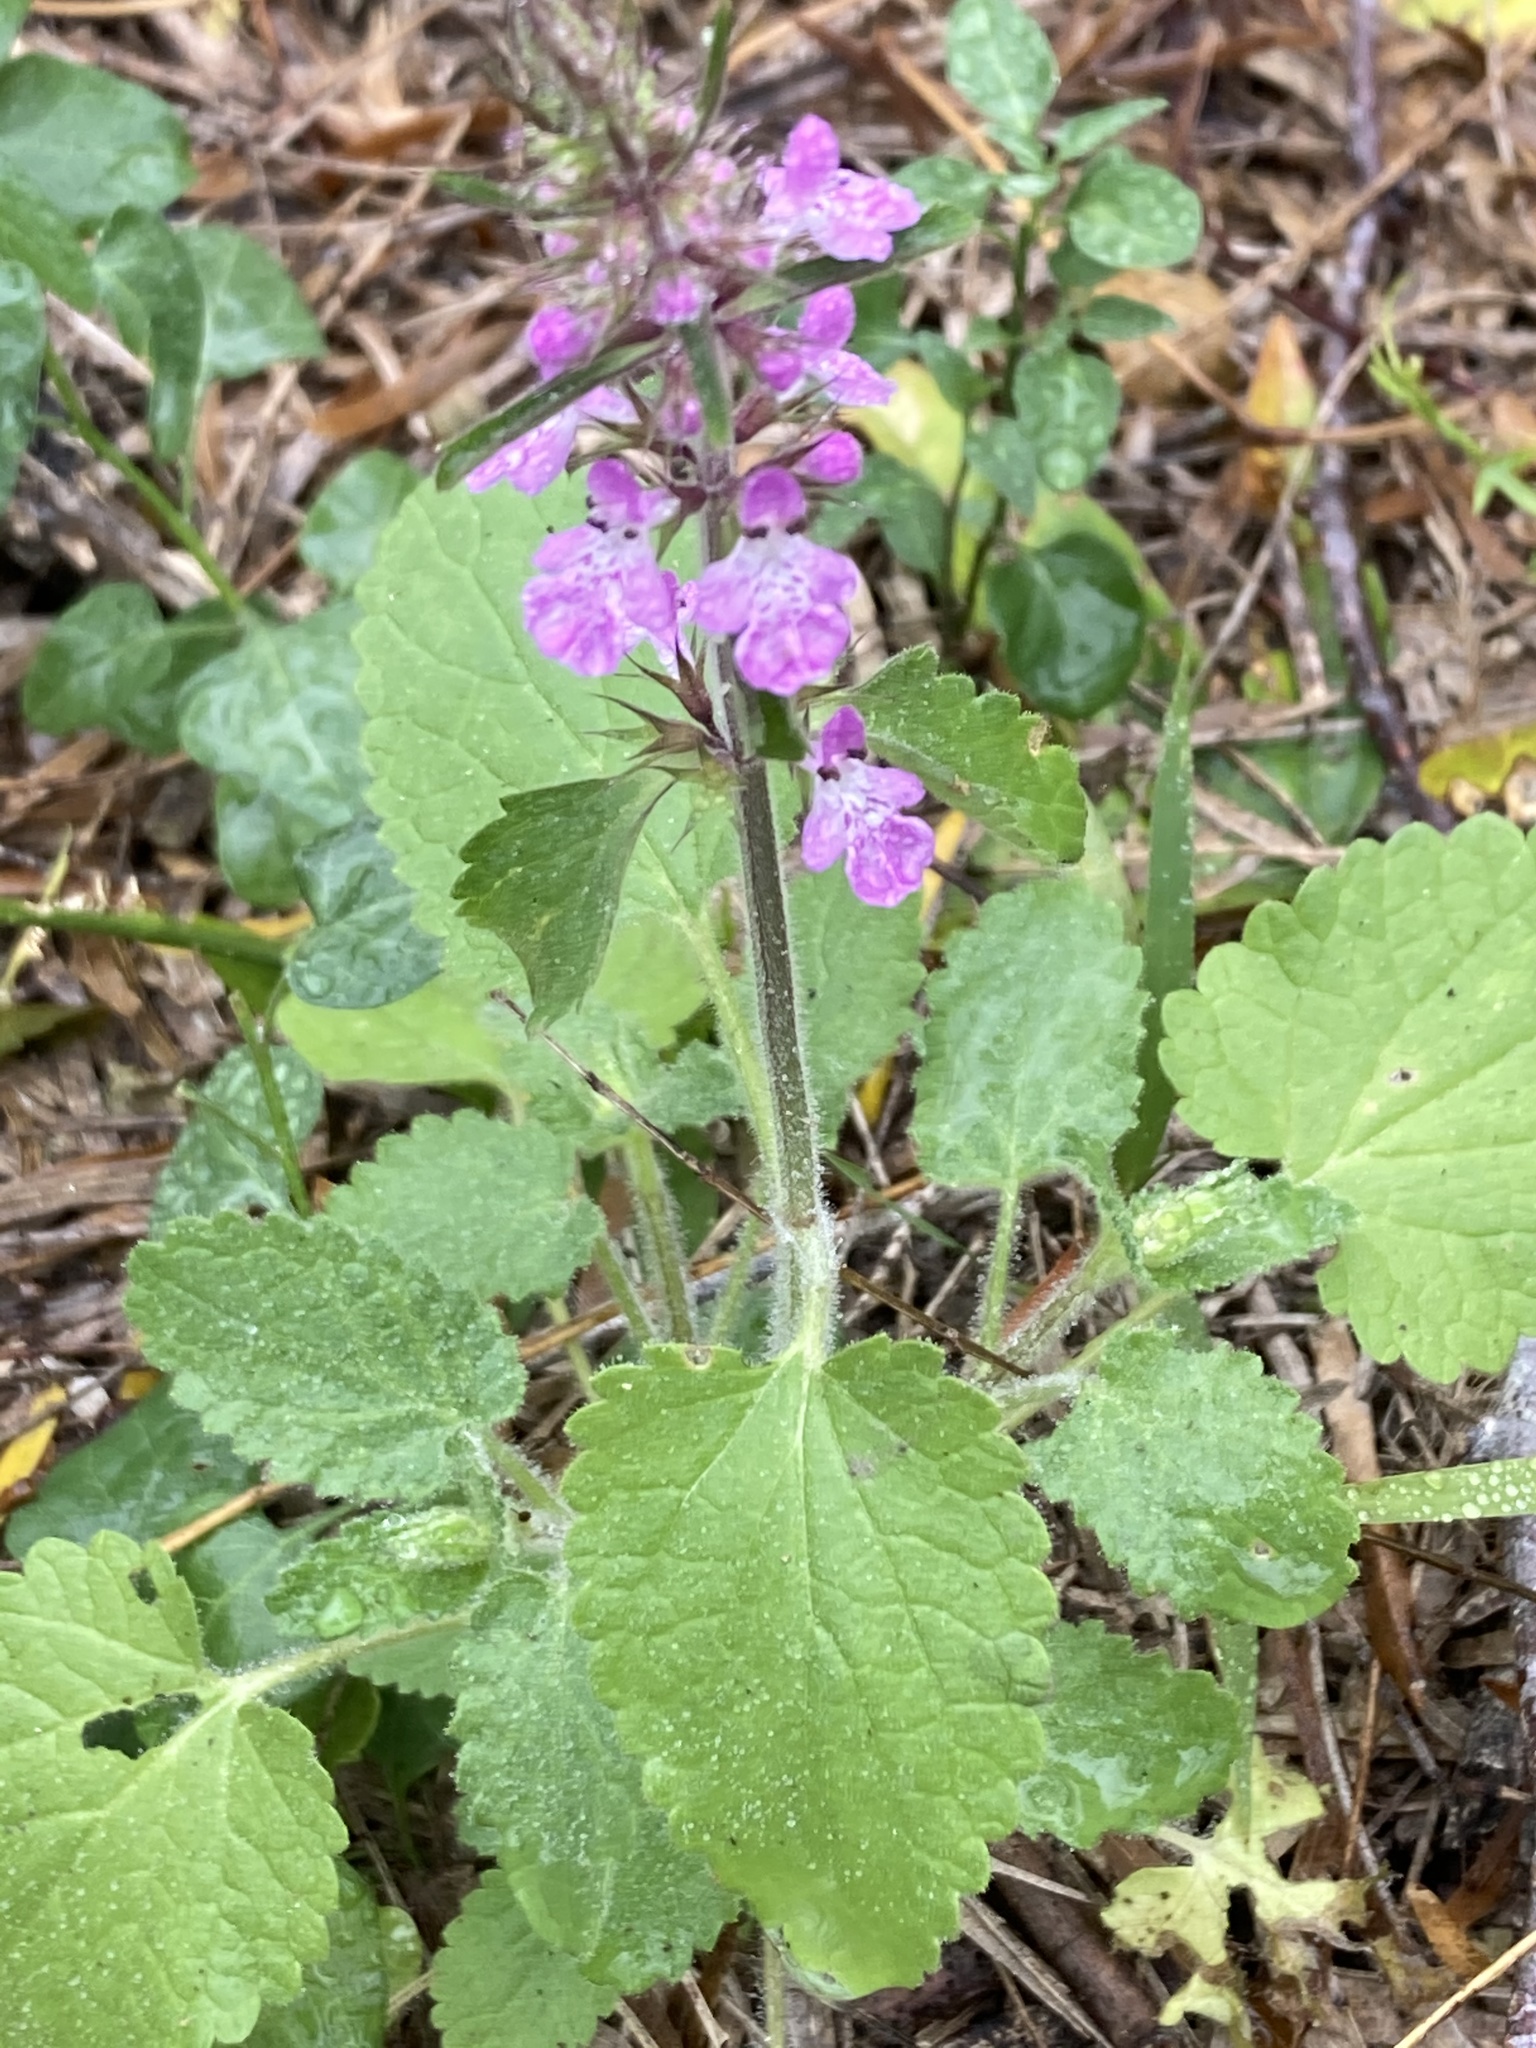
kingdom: Plantae
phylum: Tracheophyta
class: Magnoliopsida
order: Lamiales
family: Lamiaceae
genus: Stachys
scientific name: Stachys drummondii
